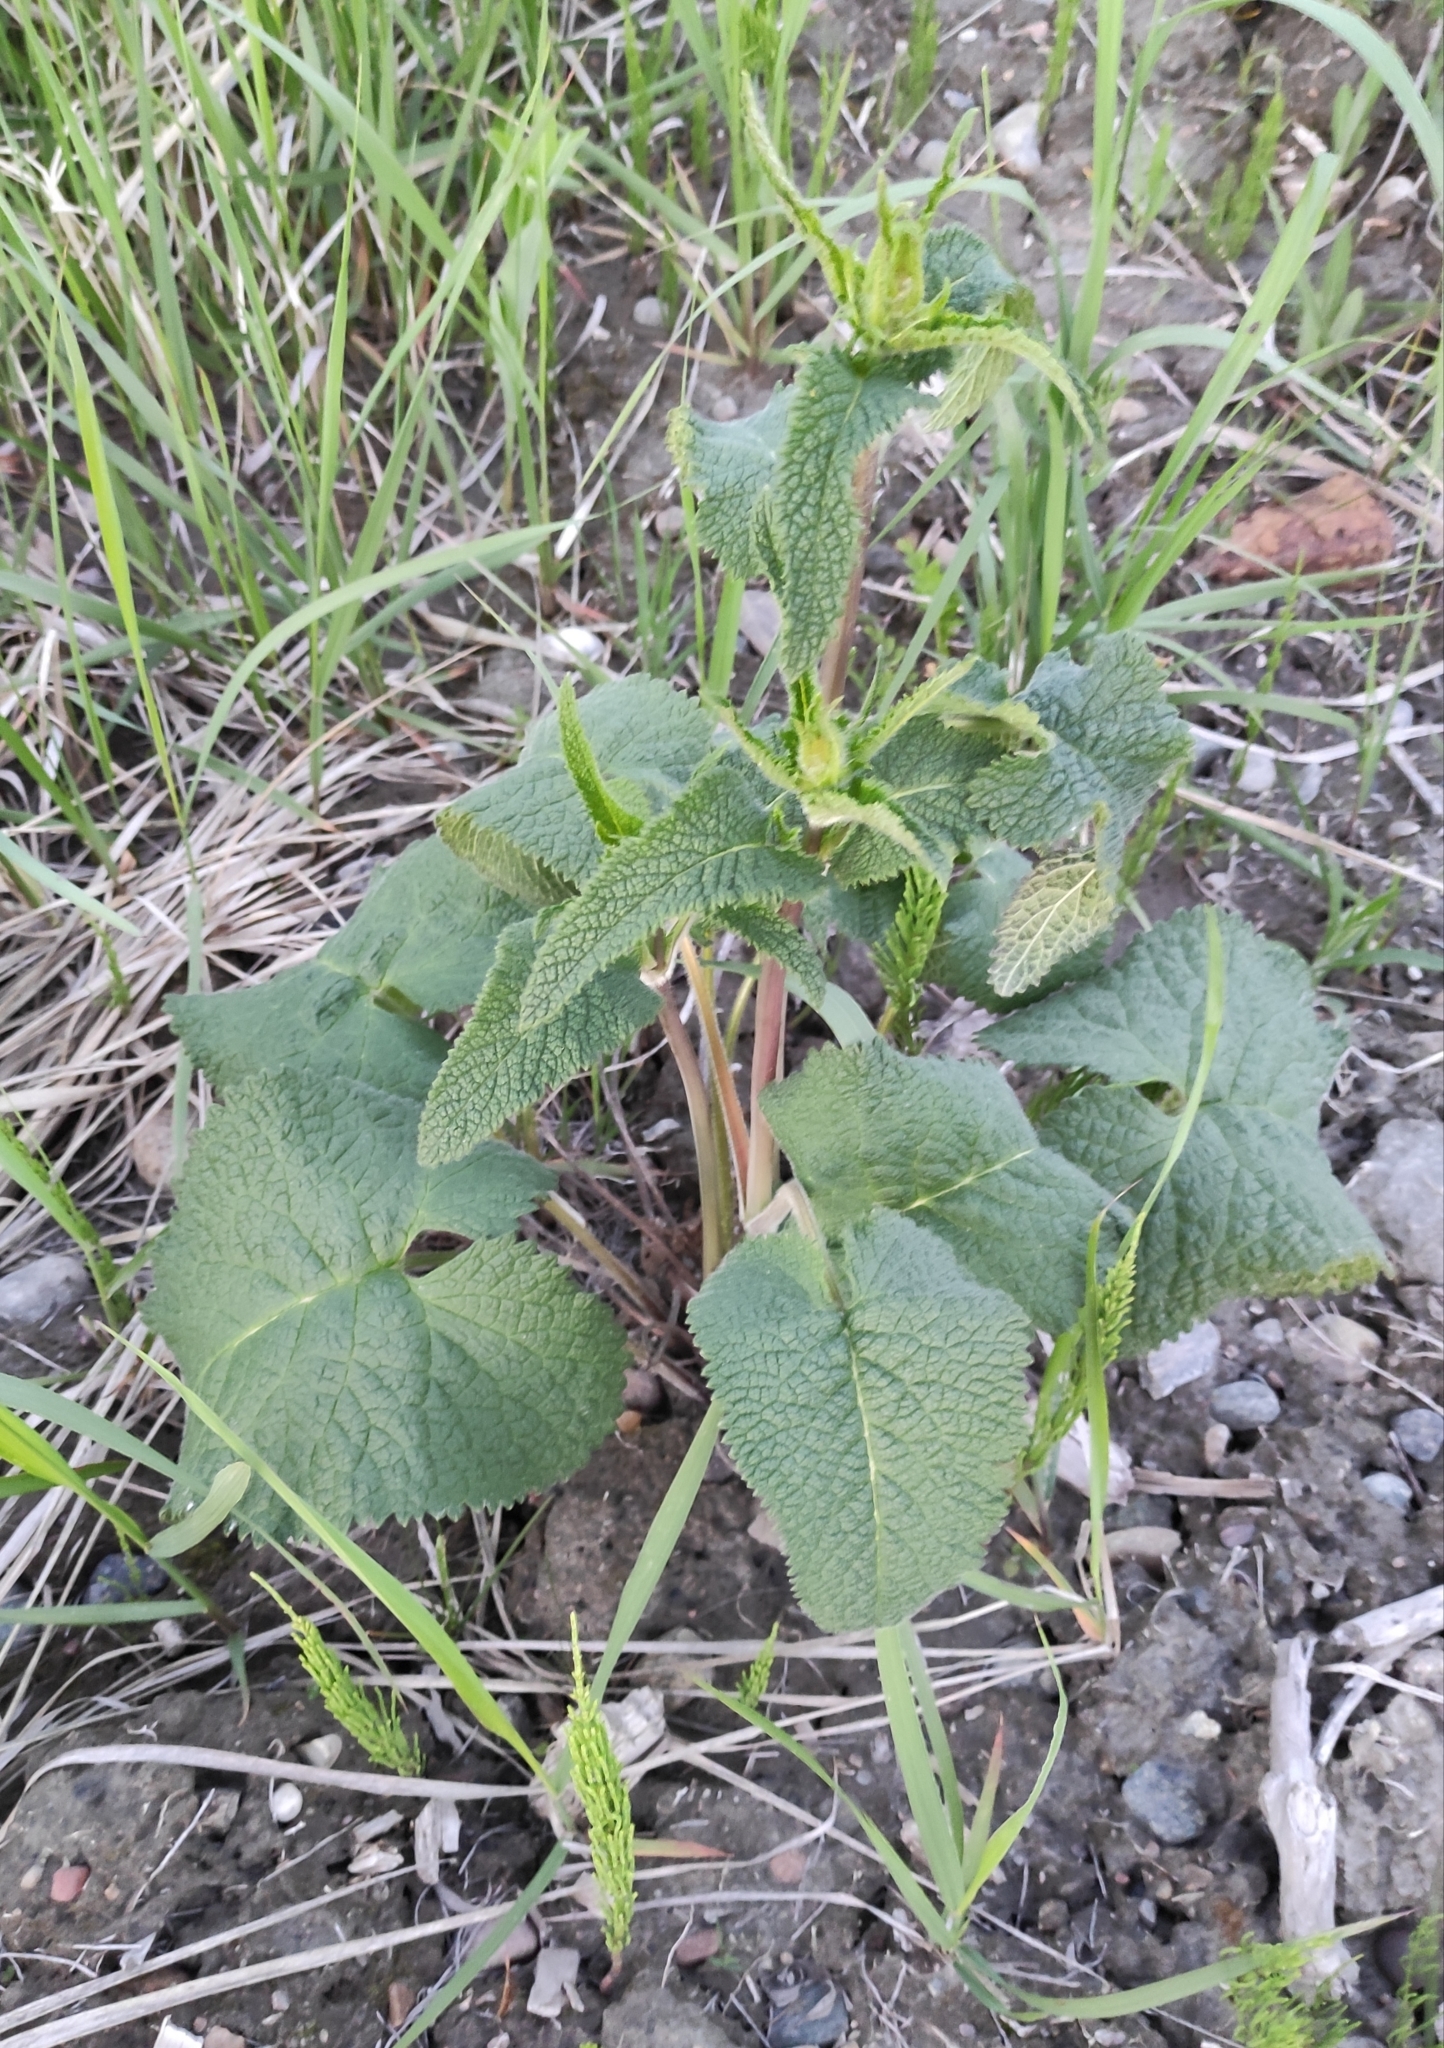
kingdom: Plantae
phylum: Tracheophyta
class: Magnoliopsida
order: Lamiales
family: Lamiaceae
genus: Phlomoides
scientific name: Phlomoides tuberosa
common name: Tuberous jerusalem sage
